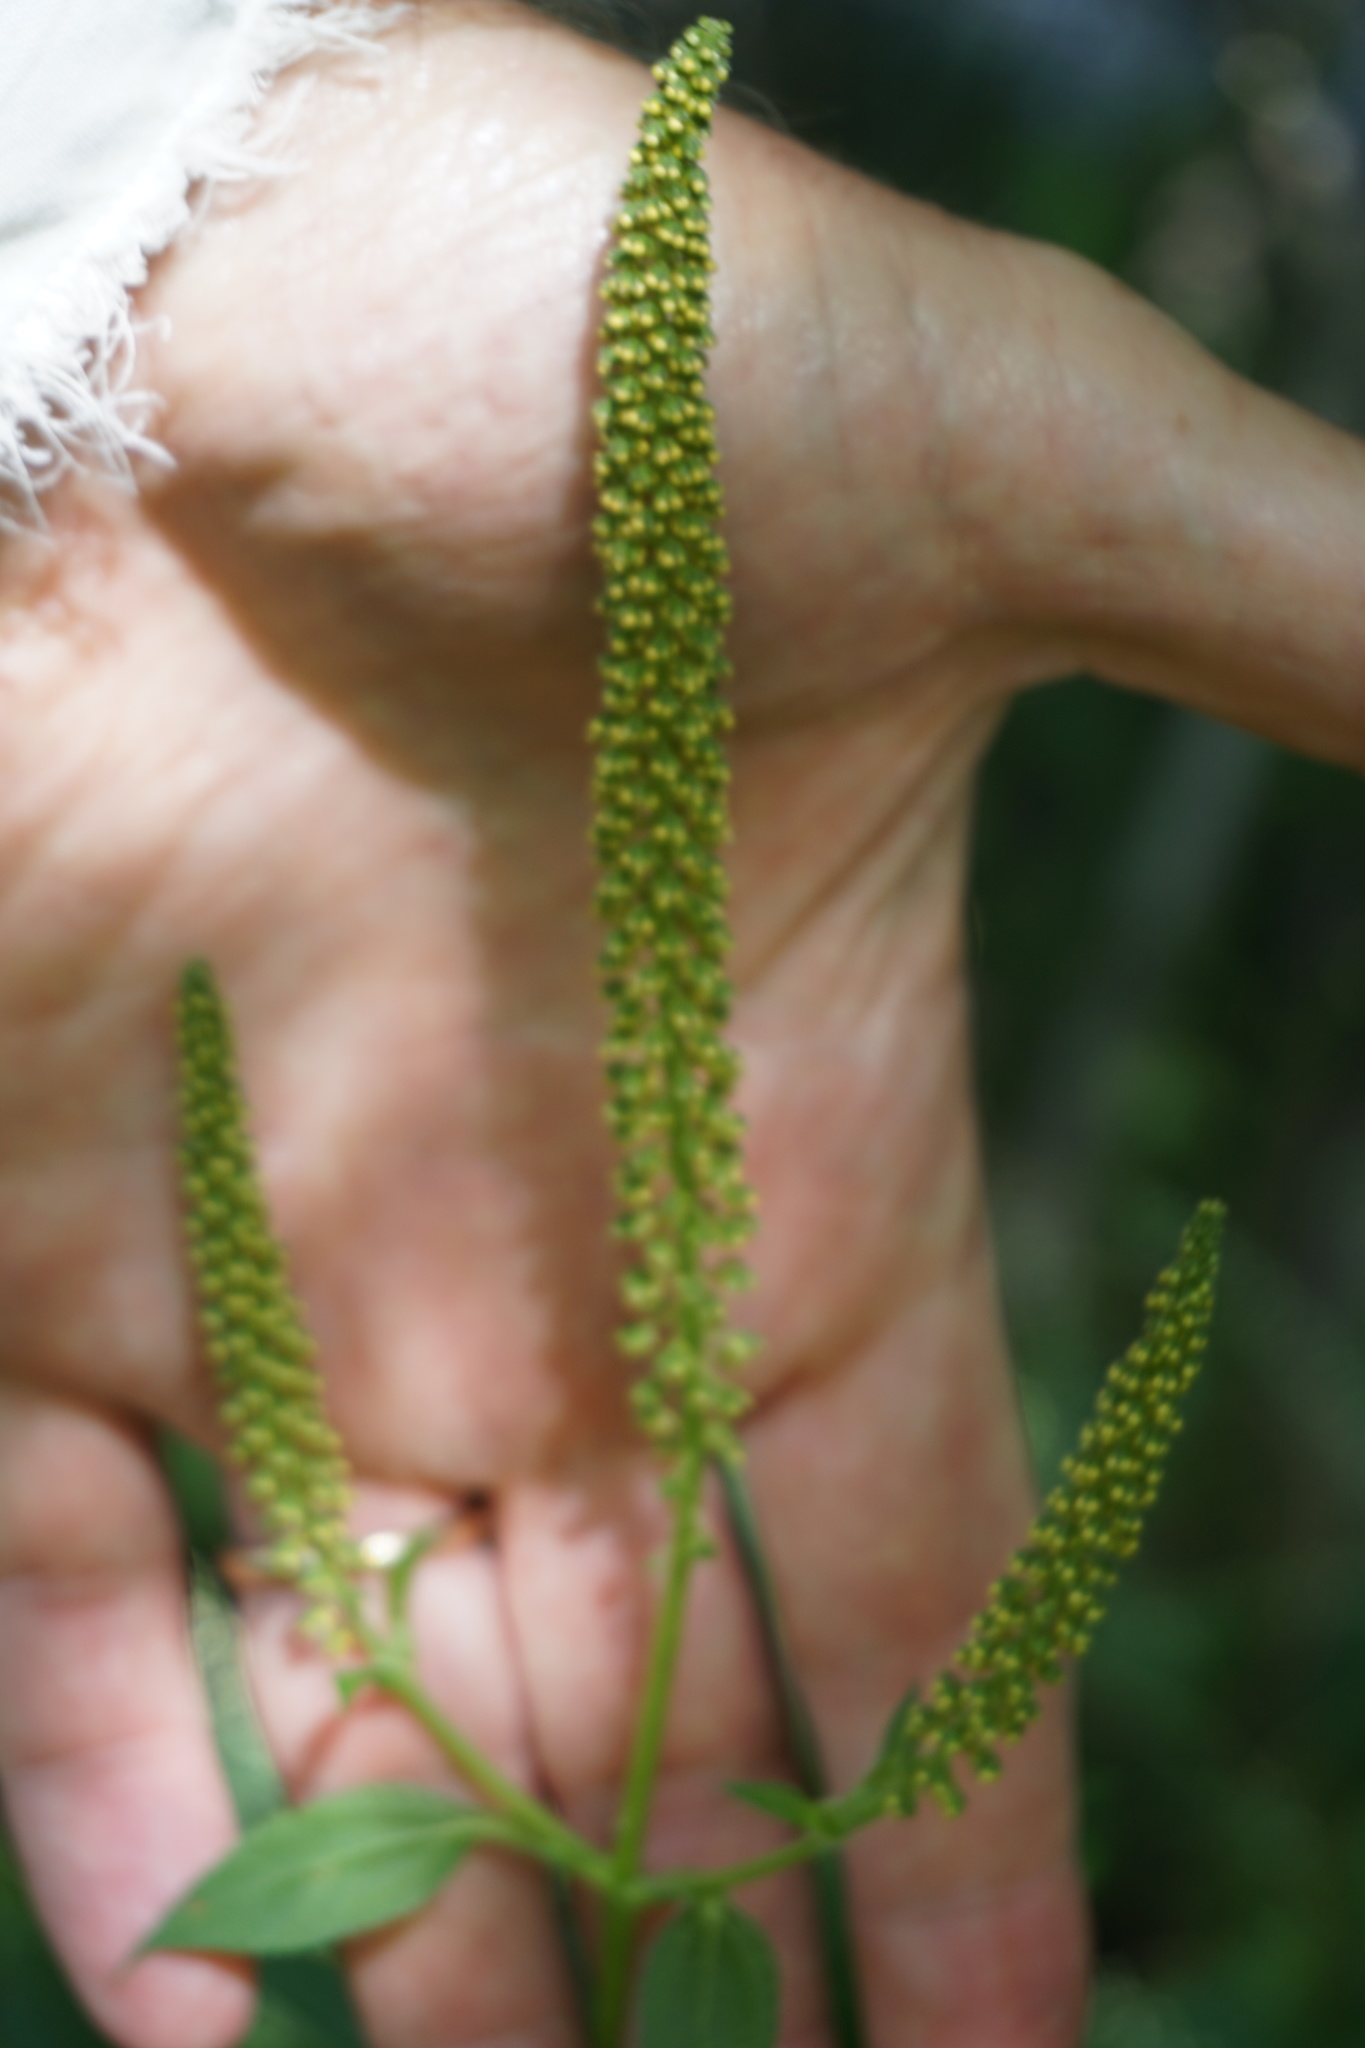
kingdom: Plantae
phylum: Tracheophyta
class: Magnoliopsida
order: Asterales
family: Asteraceae
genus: Ambrosia
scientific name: Ambrosia trifida
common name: Giant ragweed
